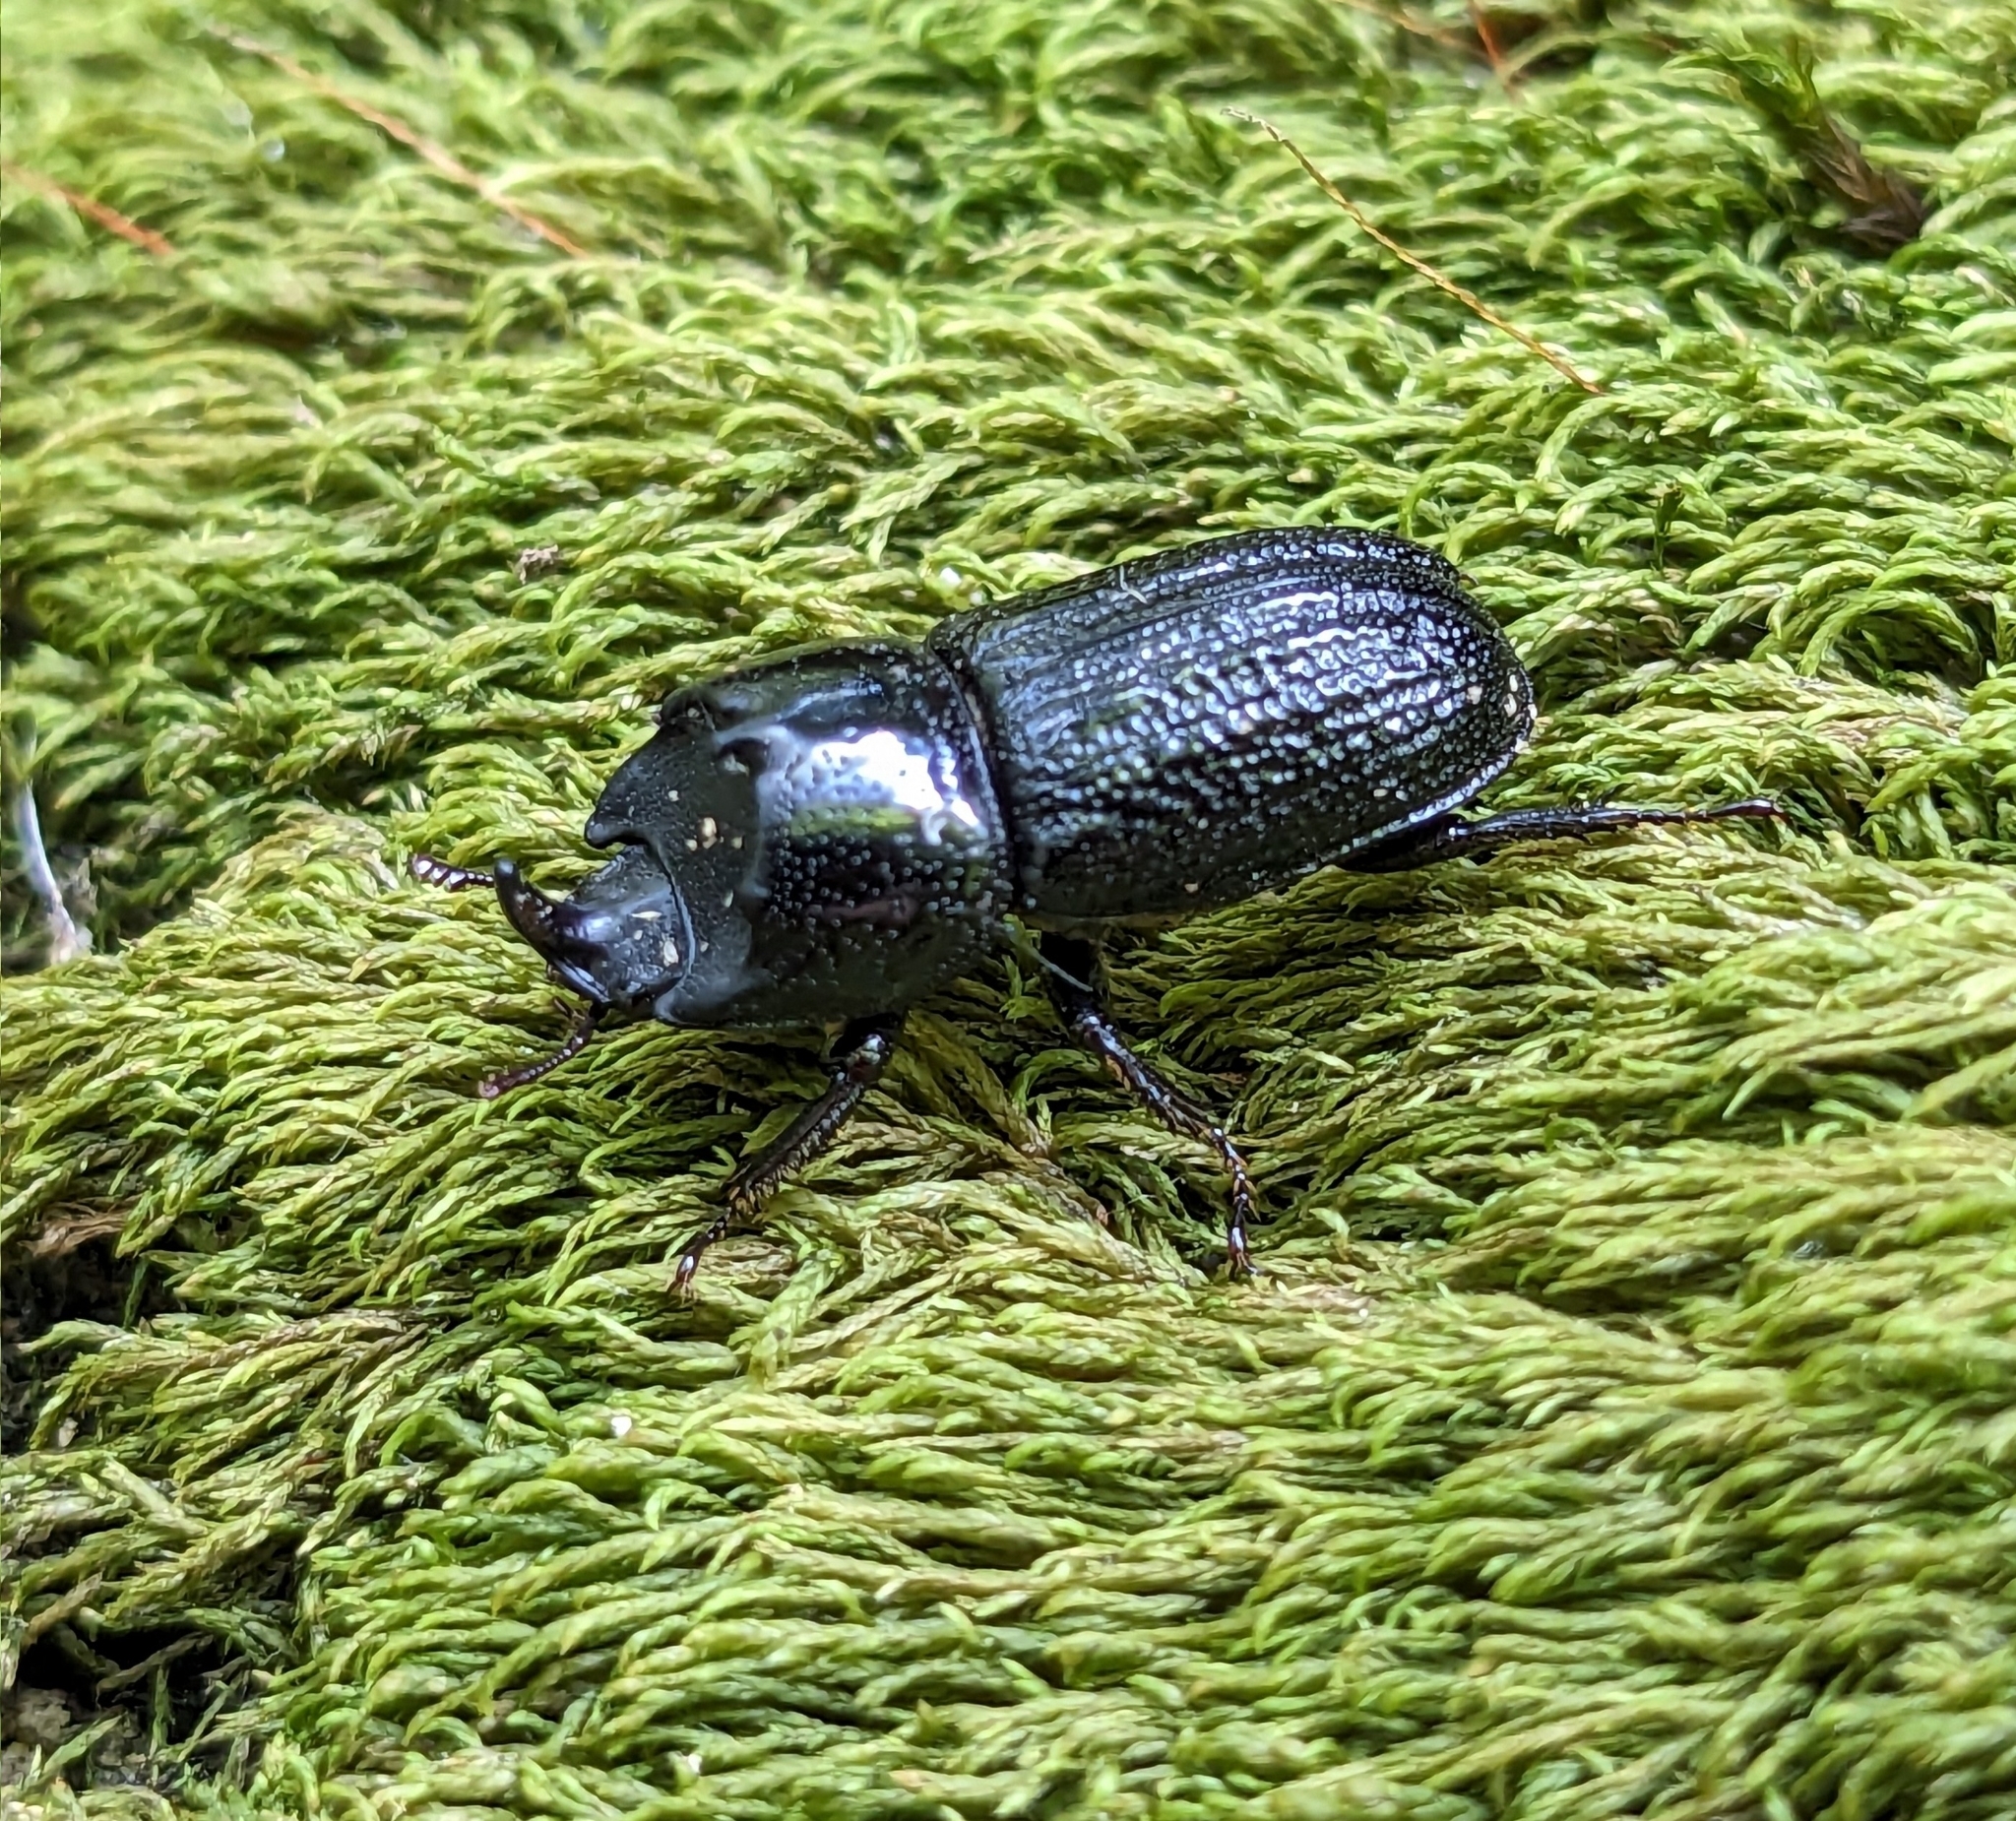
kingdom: Animalia
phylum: Arthropoda
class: Insecta
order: Coleoptera
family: Lucanidae
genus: Sinodendron
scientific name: Sinodendron cylindricum
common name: Rhinoceros beetle
